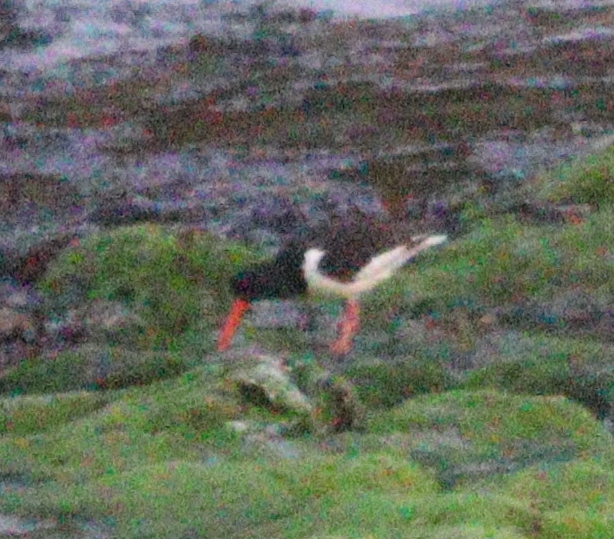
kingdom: Animalia
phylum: Chordata
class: Aves
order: Charadriiformes
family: Haematopodidae
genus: Haematopus
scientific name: Haematopus ostralegus
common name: Eurasian oystercatcher
